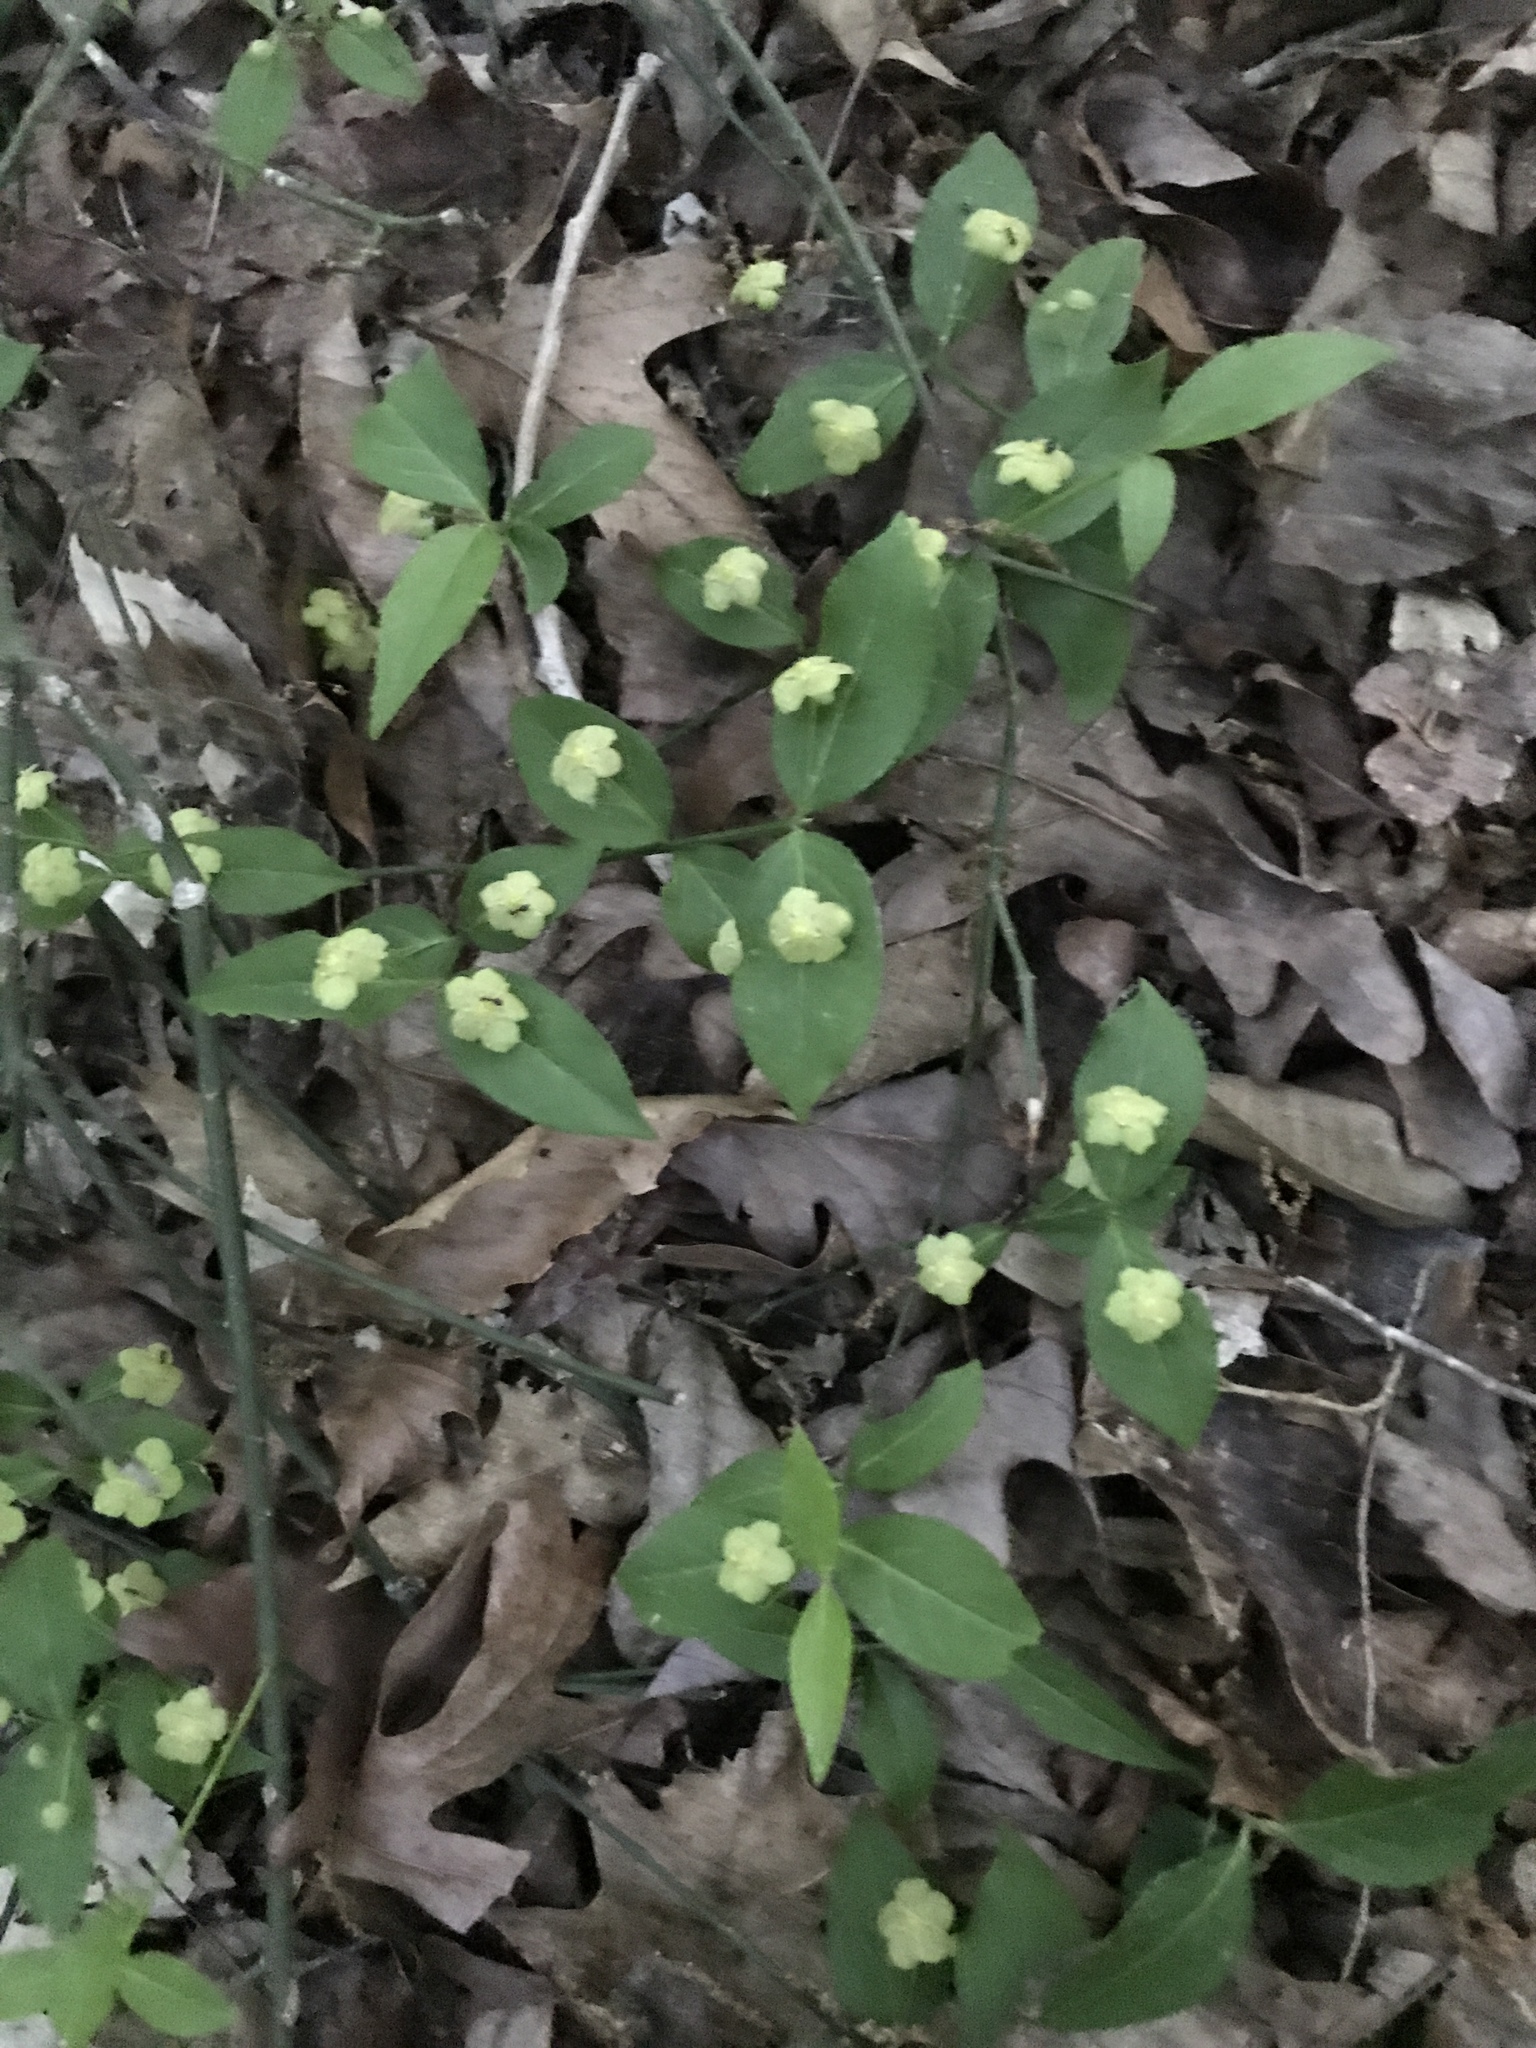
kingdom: Plantae
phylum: Tracheophyta
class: Magnoliopsida
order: Celastrales
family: Celastraceae
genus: Euonymus
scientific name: Euonymus americanus
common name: Bursting-heart
